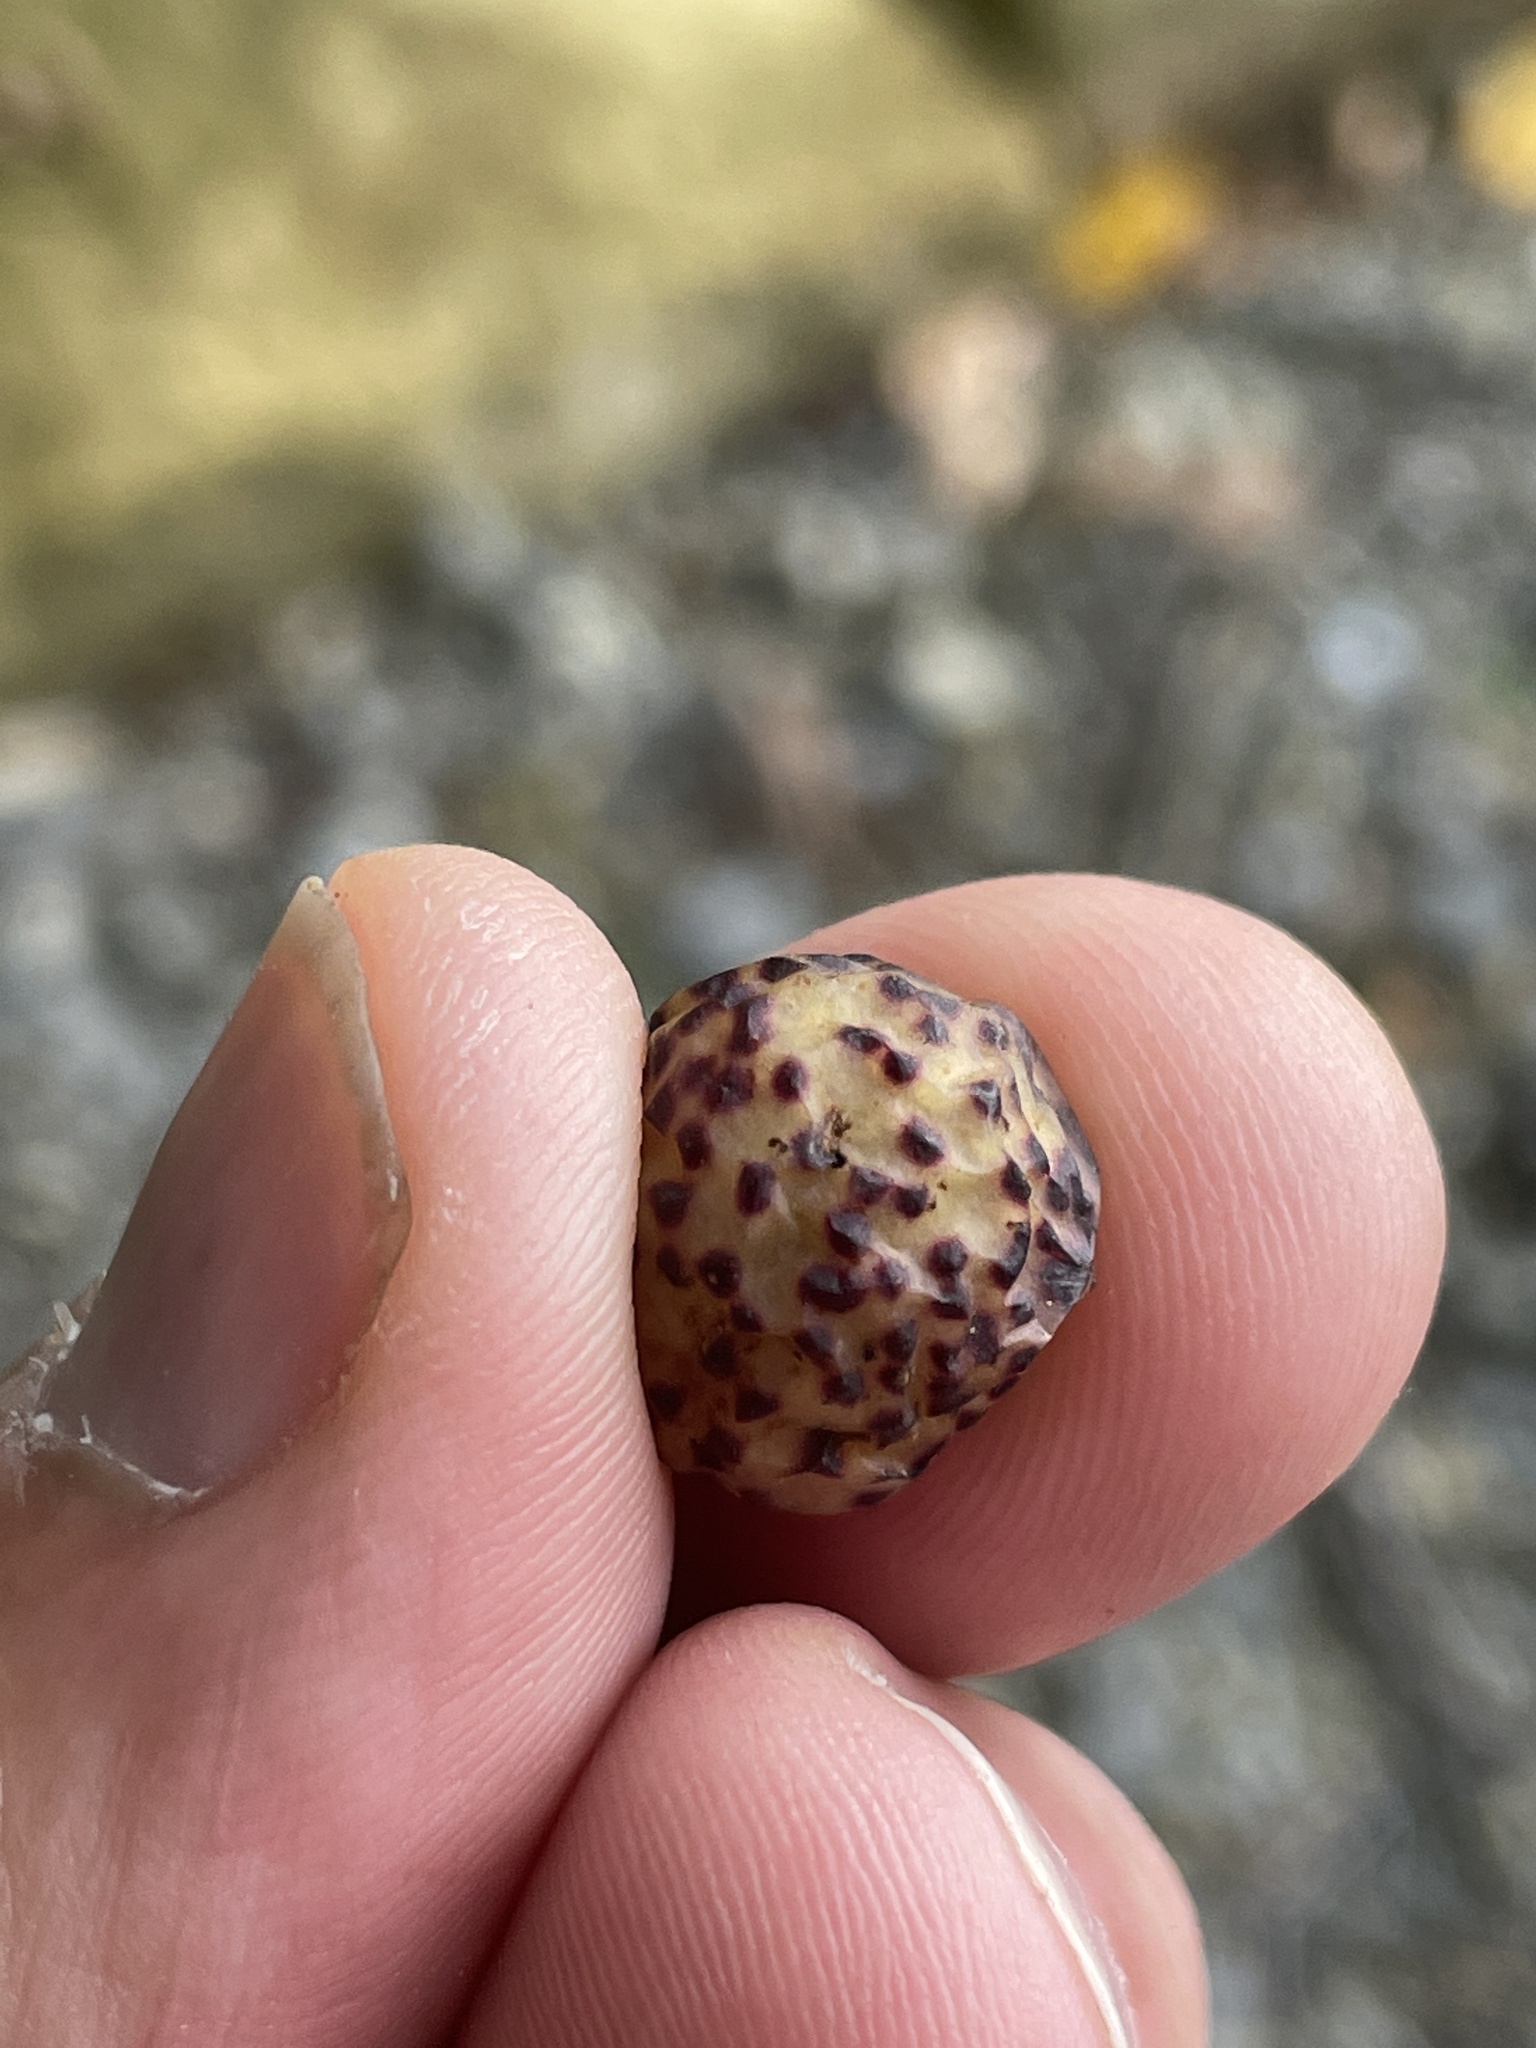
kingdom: Animalia
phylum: Arthropoda
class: Insecta
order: Hymenoptera
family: Cynipidae
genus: Amphibolips
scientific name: Amphibolips
